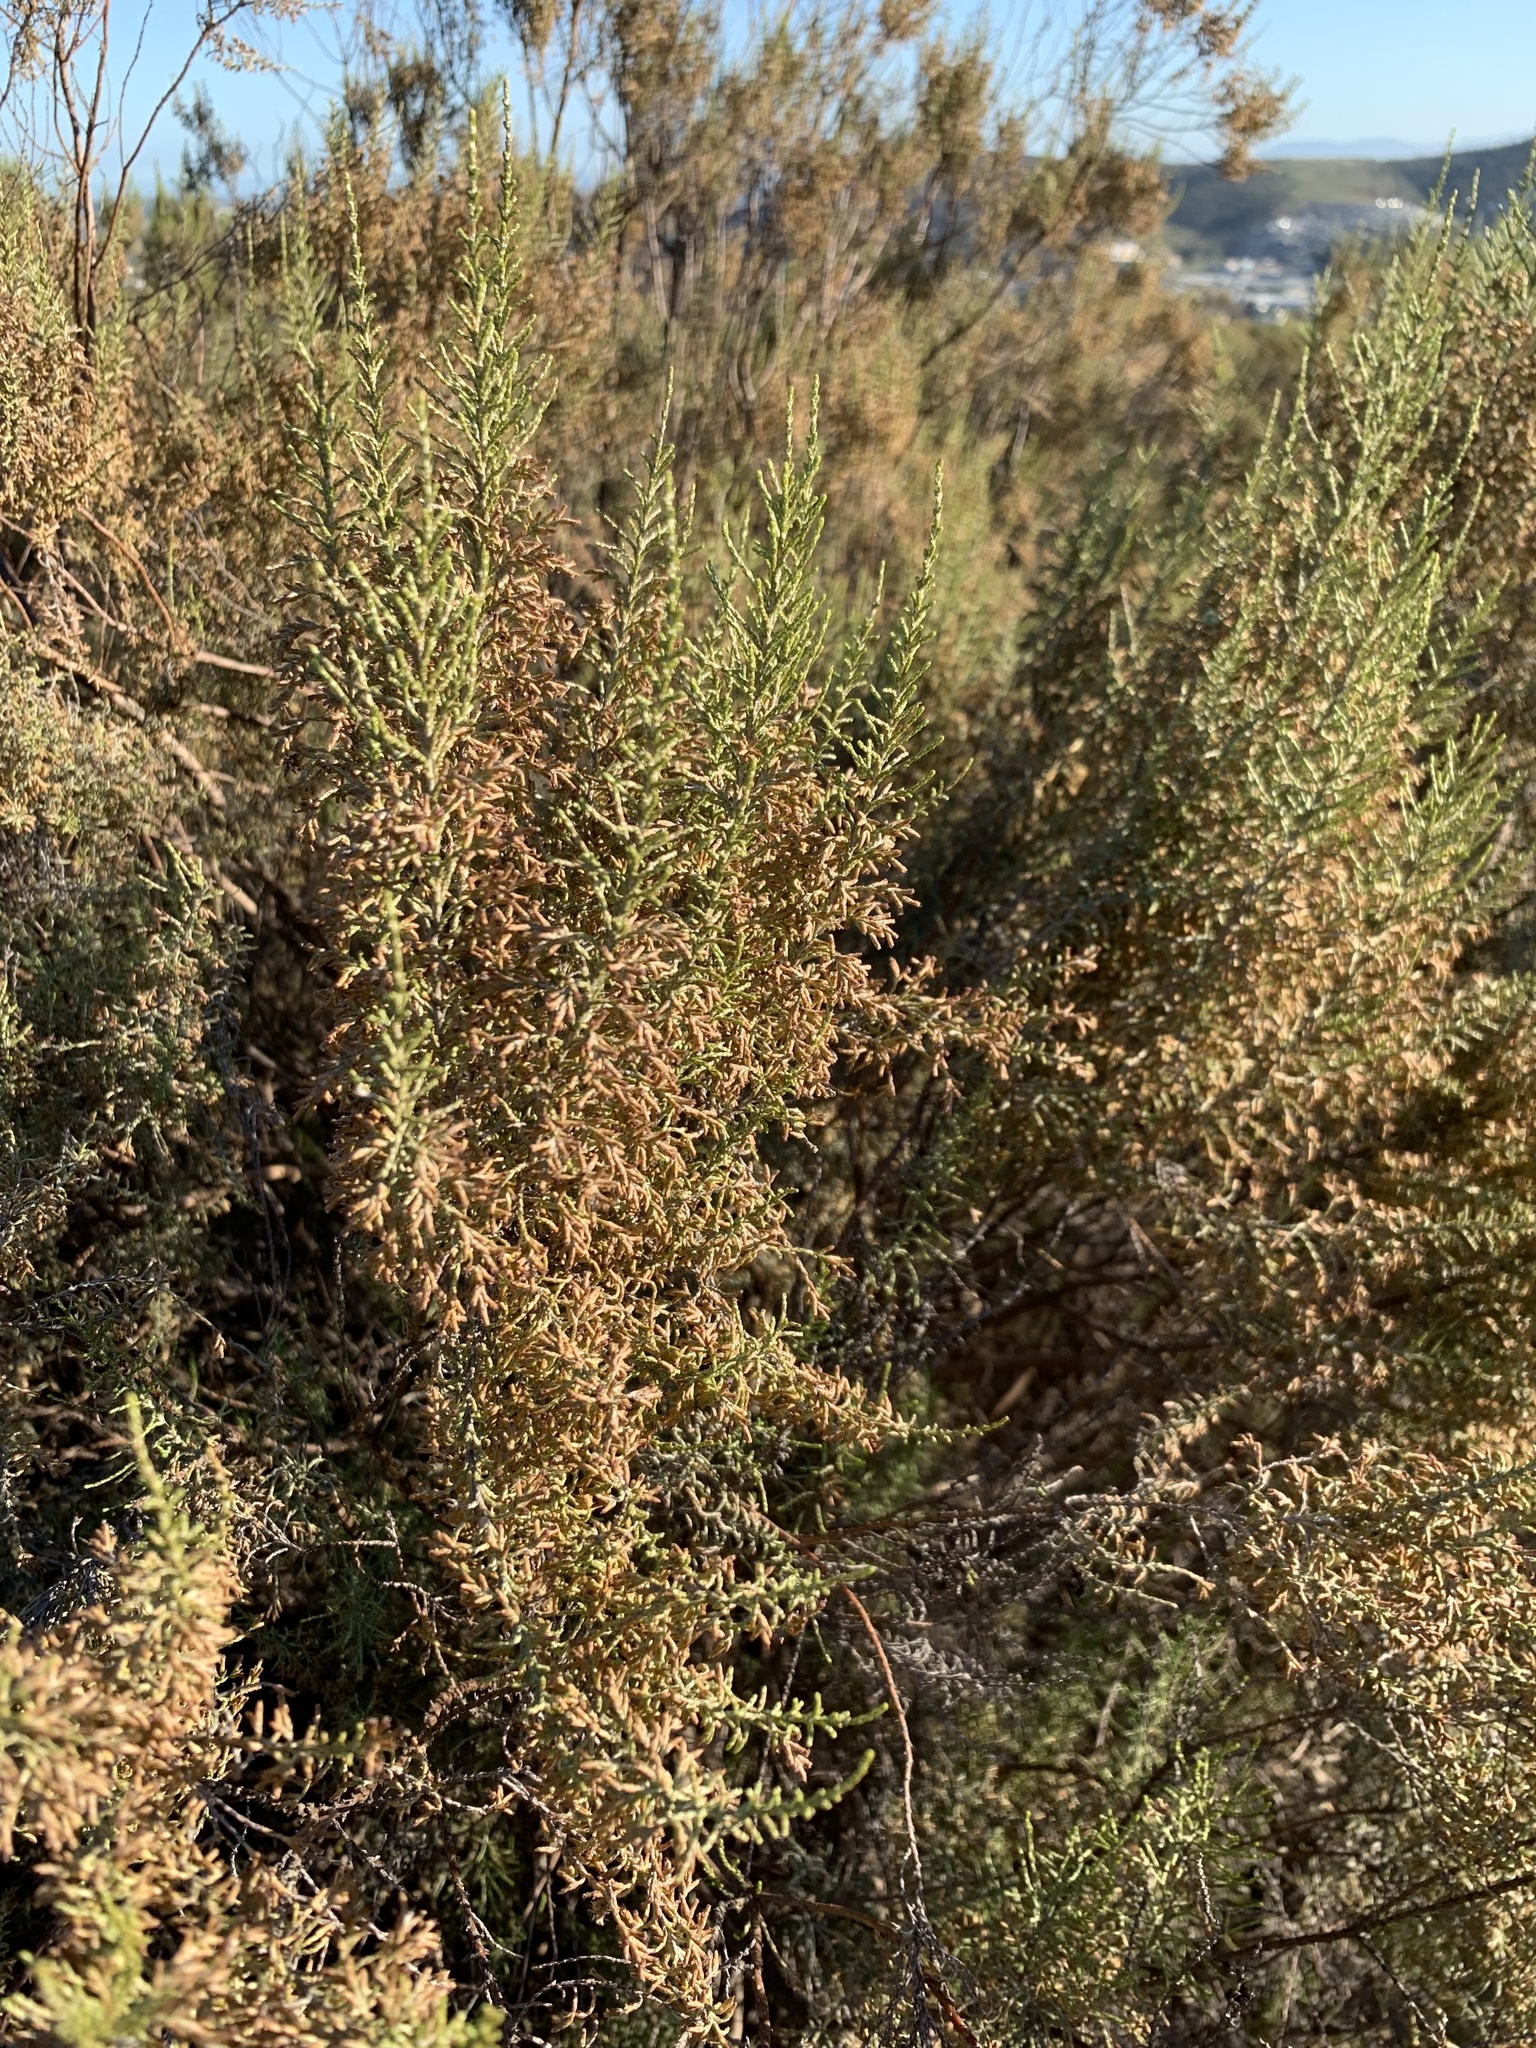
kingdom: Plantae
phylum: Tracheophyta
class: Magnoliopsida
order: Asterales
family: Asteraceae
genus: Dicerothamnus
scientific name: Dicerothamnus rhinocerotis
